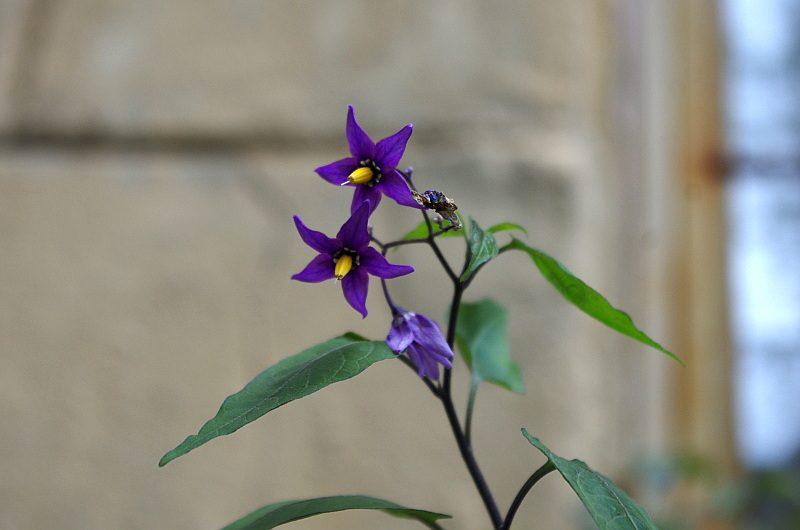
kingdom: Plantae
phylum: Tracheophyta
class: Magnoliopsida
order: Solanales
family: Solanaceae
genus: Solanum
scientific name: Solanum dulcamara
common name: Climbing nightshade
